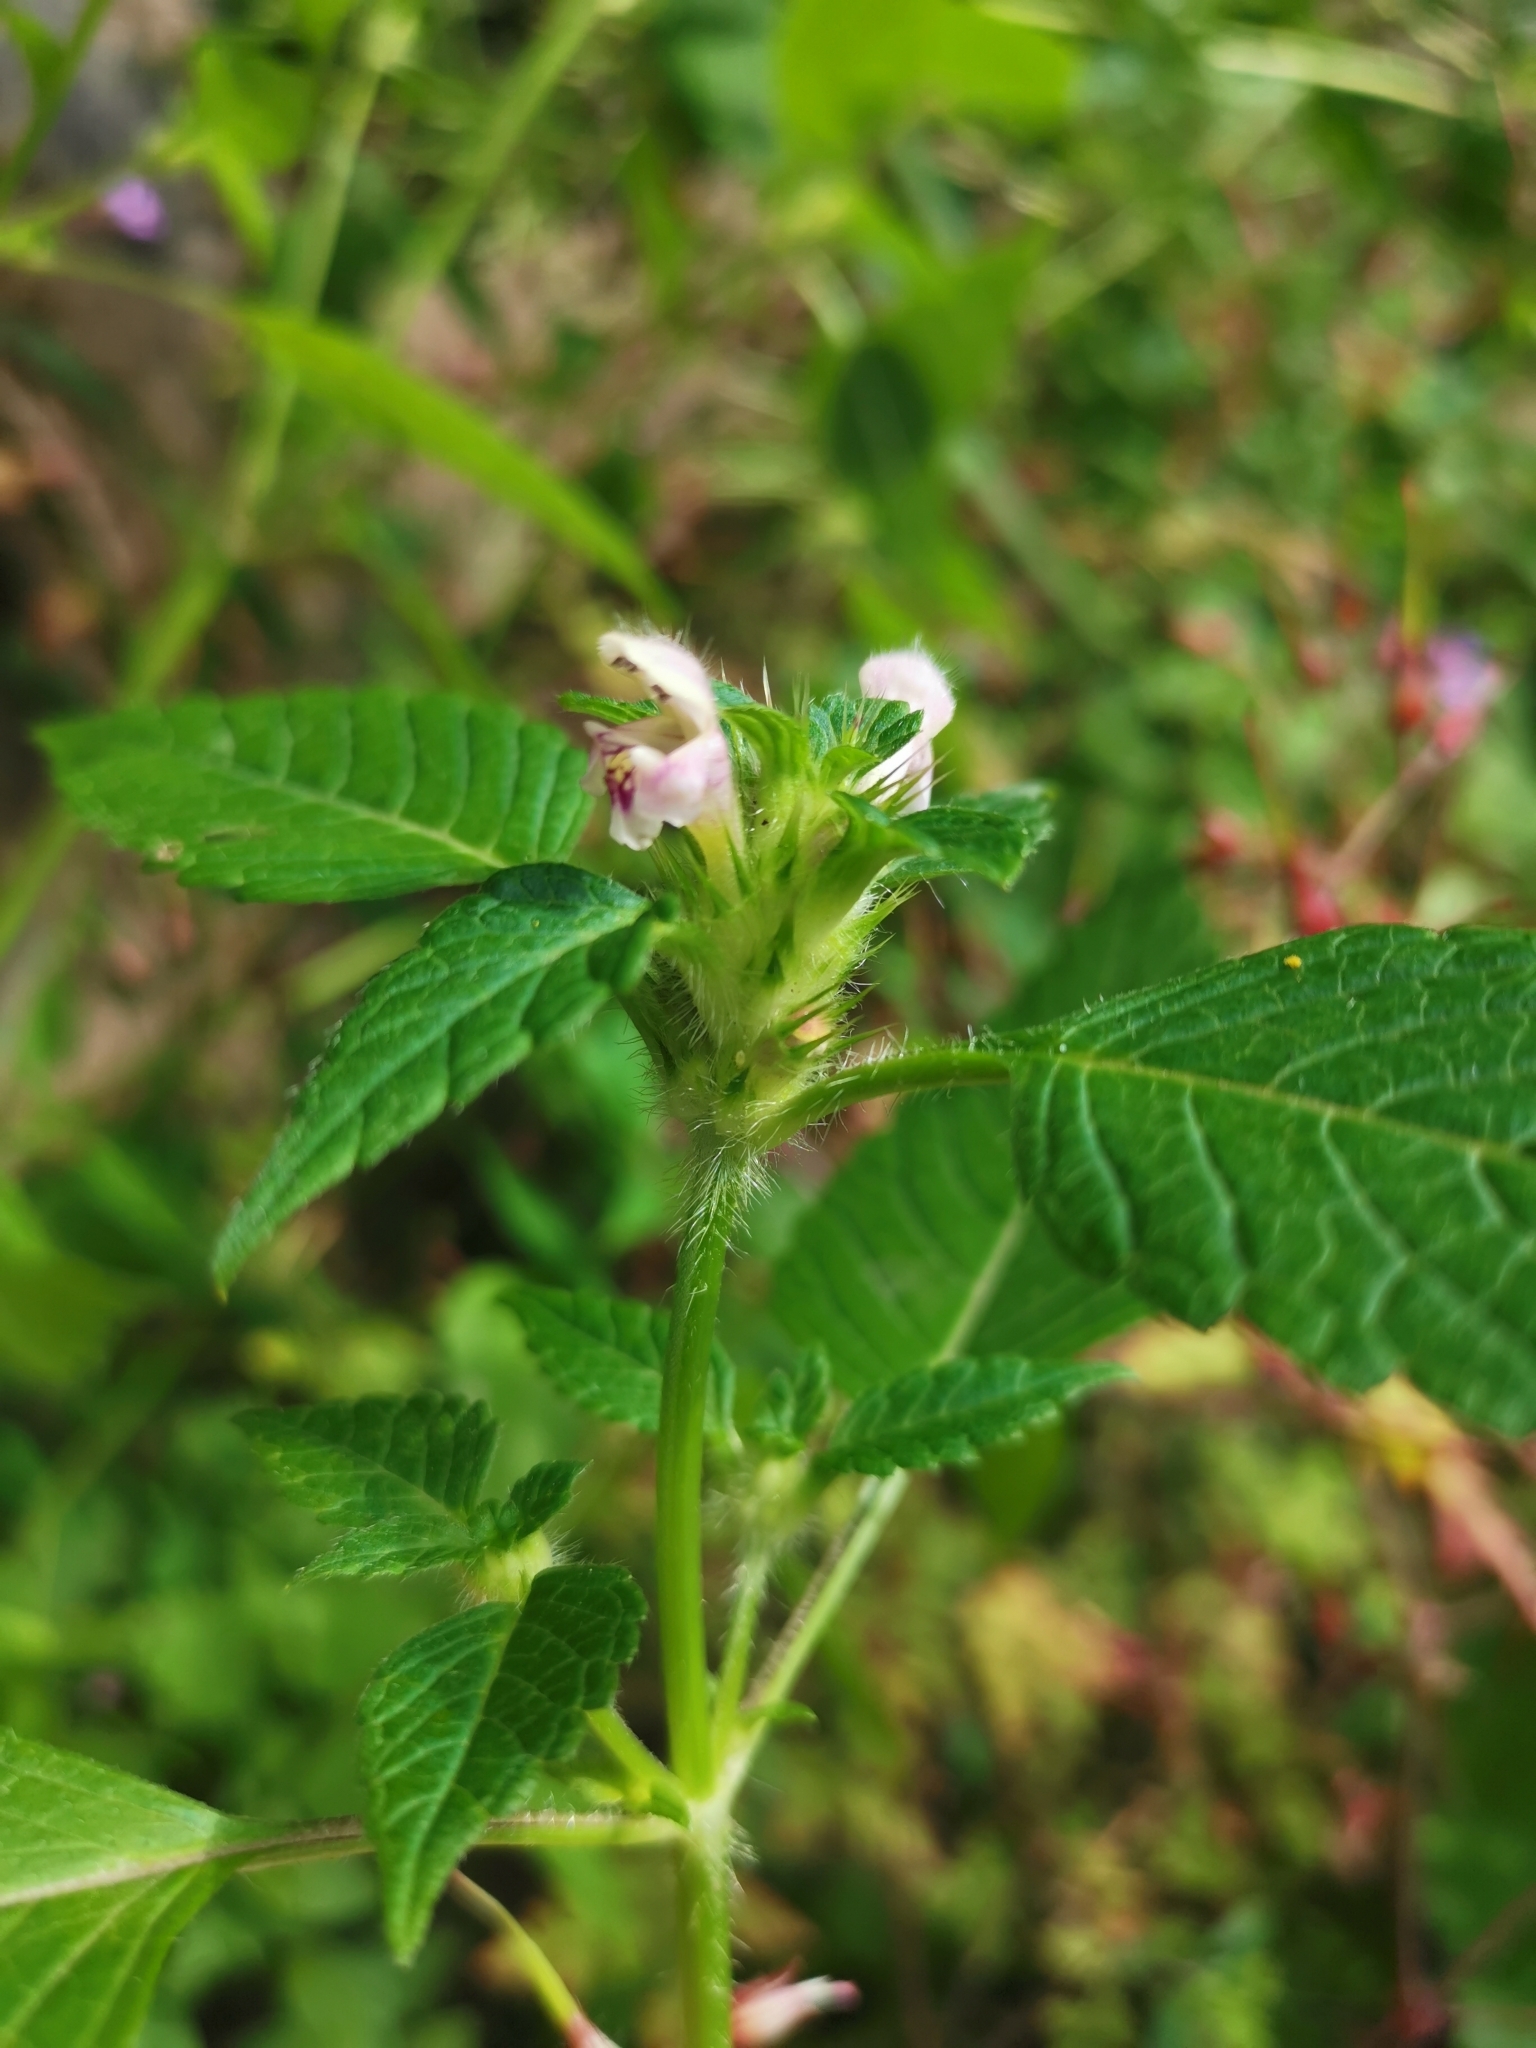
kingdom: Plantae
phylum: Tracheophyta
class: Magnoliopsida
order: Lamiales
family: Lamiaceae
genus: Galeopsis
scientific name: Galeopsis tetrahit
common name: Common hemp-nettle
